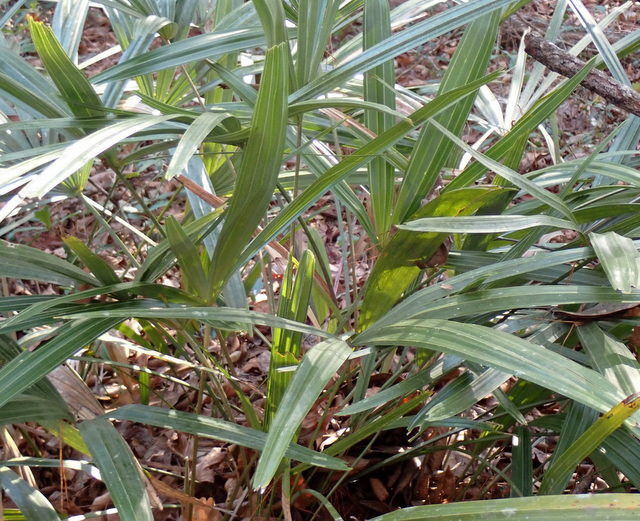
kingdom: Plantae
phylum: Tracheophyta
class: Liliopsida
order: Arecales
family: Arecaceae
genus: Rhapidophyllum
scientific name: Rhapidophyllum hystrix
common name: Porcupine palm
